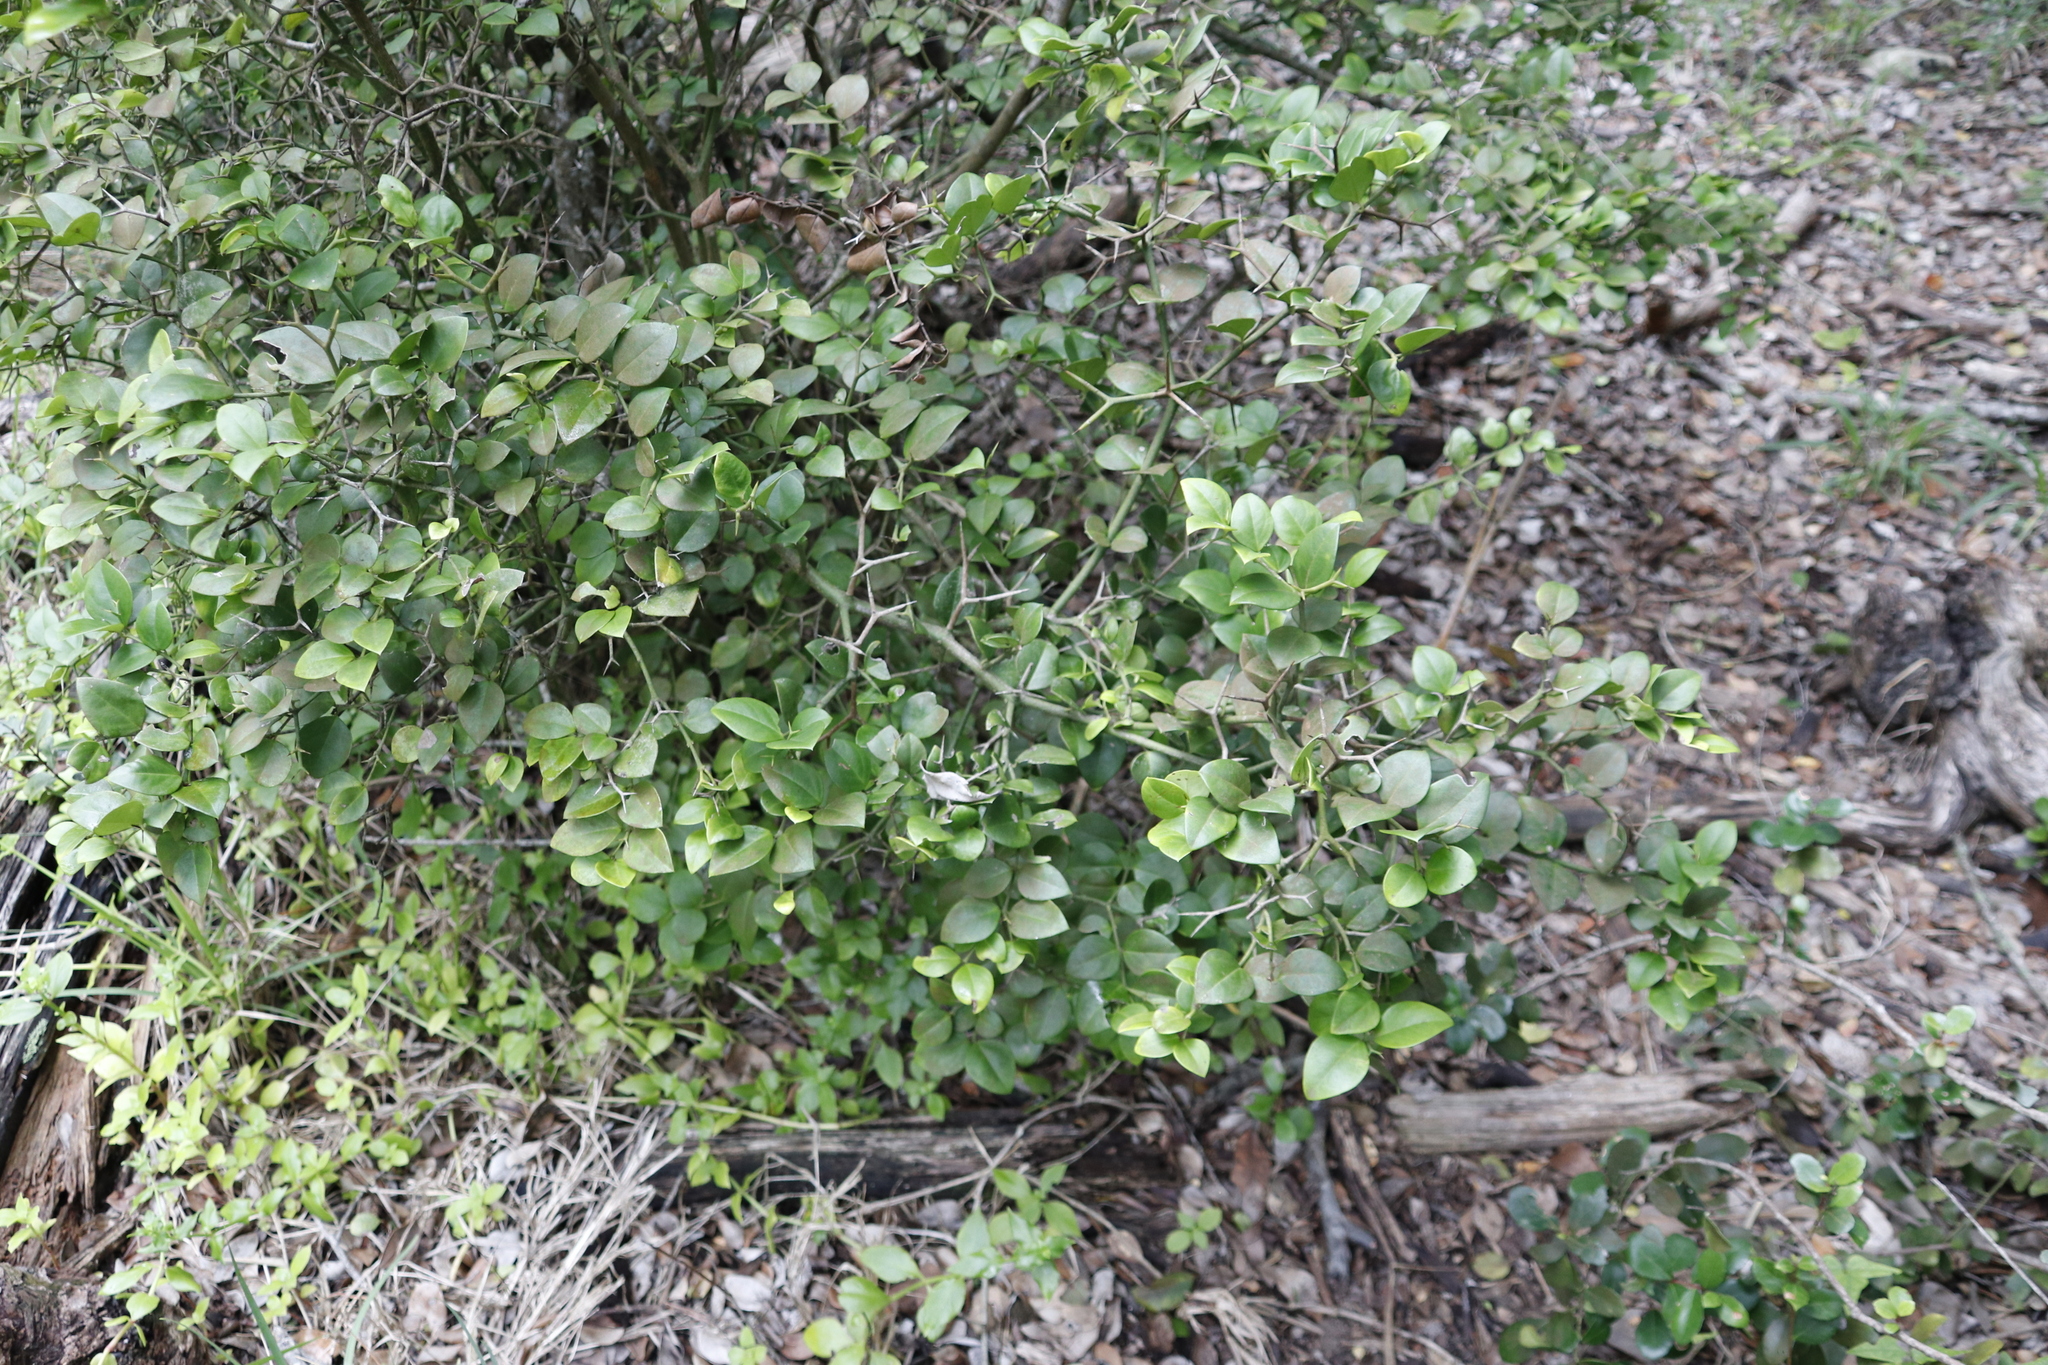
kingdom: Plantae
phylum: Tracheophyta
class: Magnoliopsida
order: Gentianales
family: Apocynaceae
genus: Carissa
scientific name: Carissa bispinosa
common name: Forest num-num
